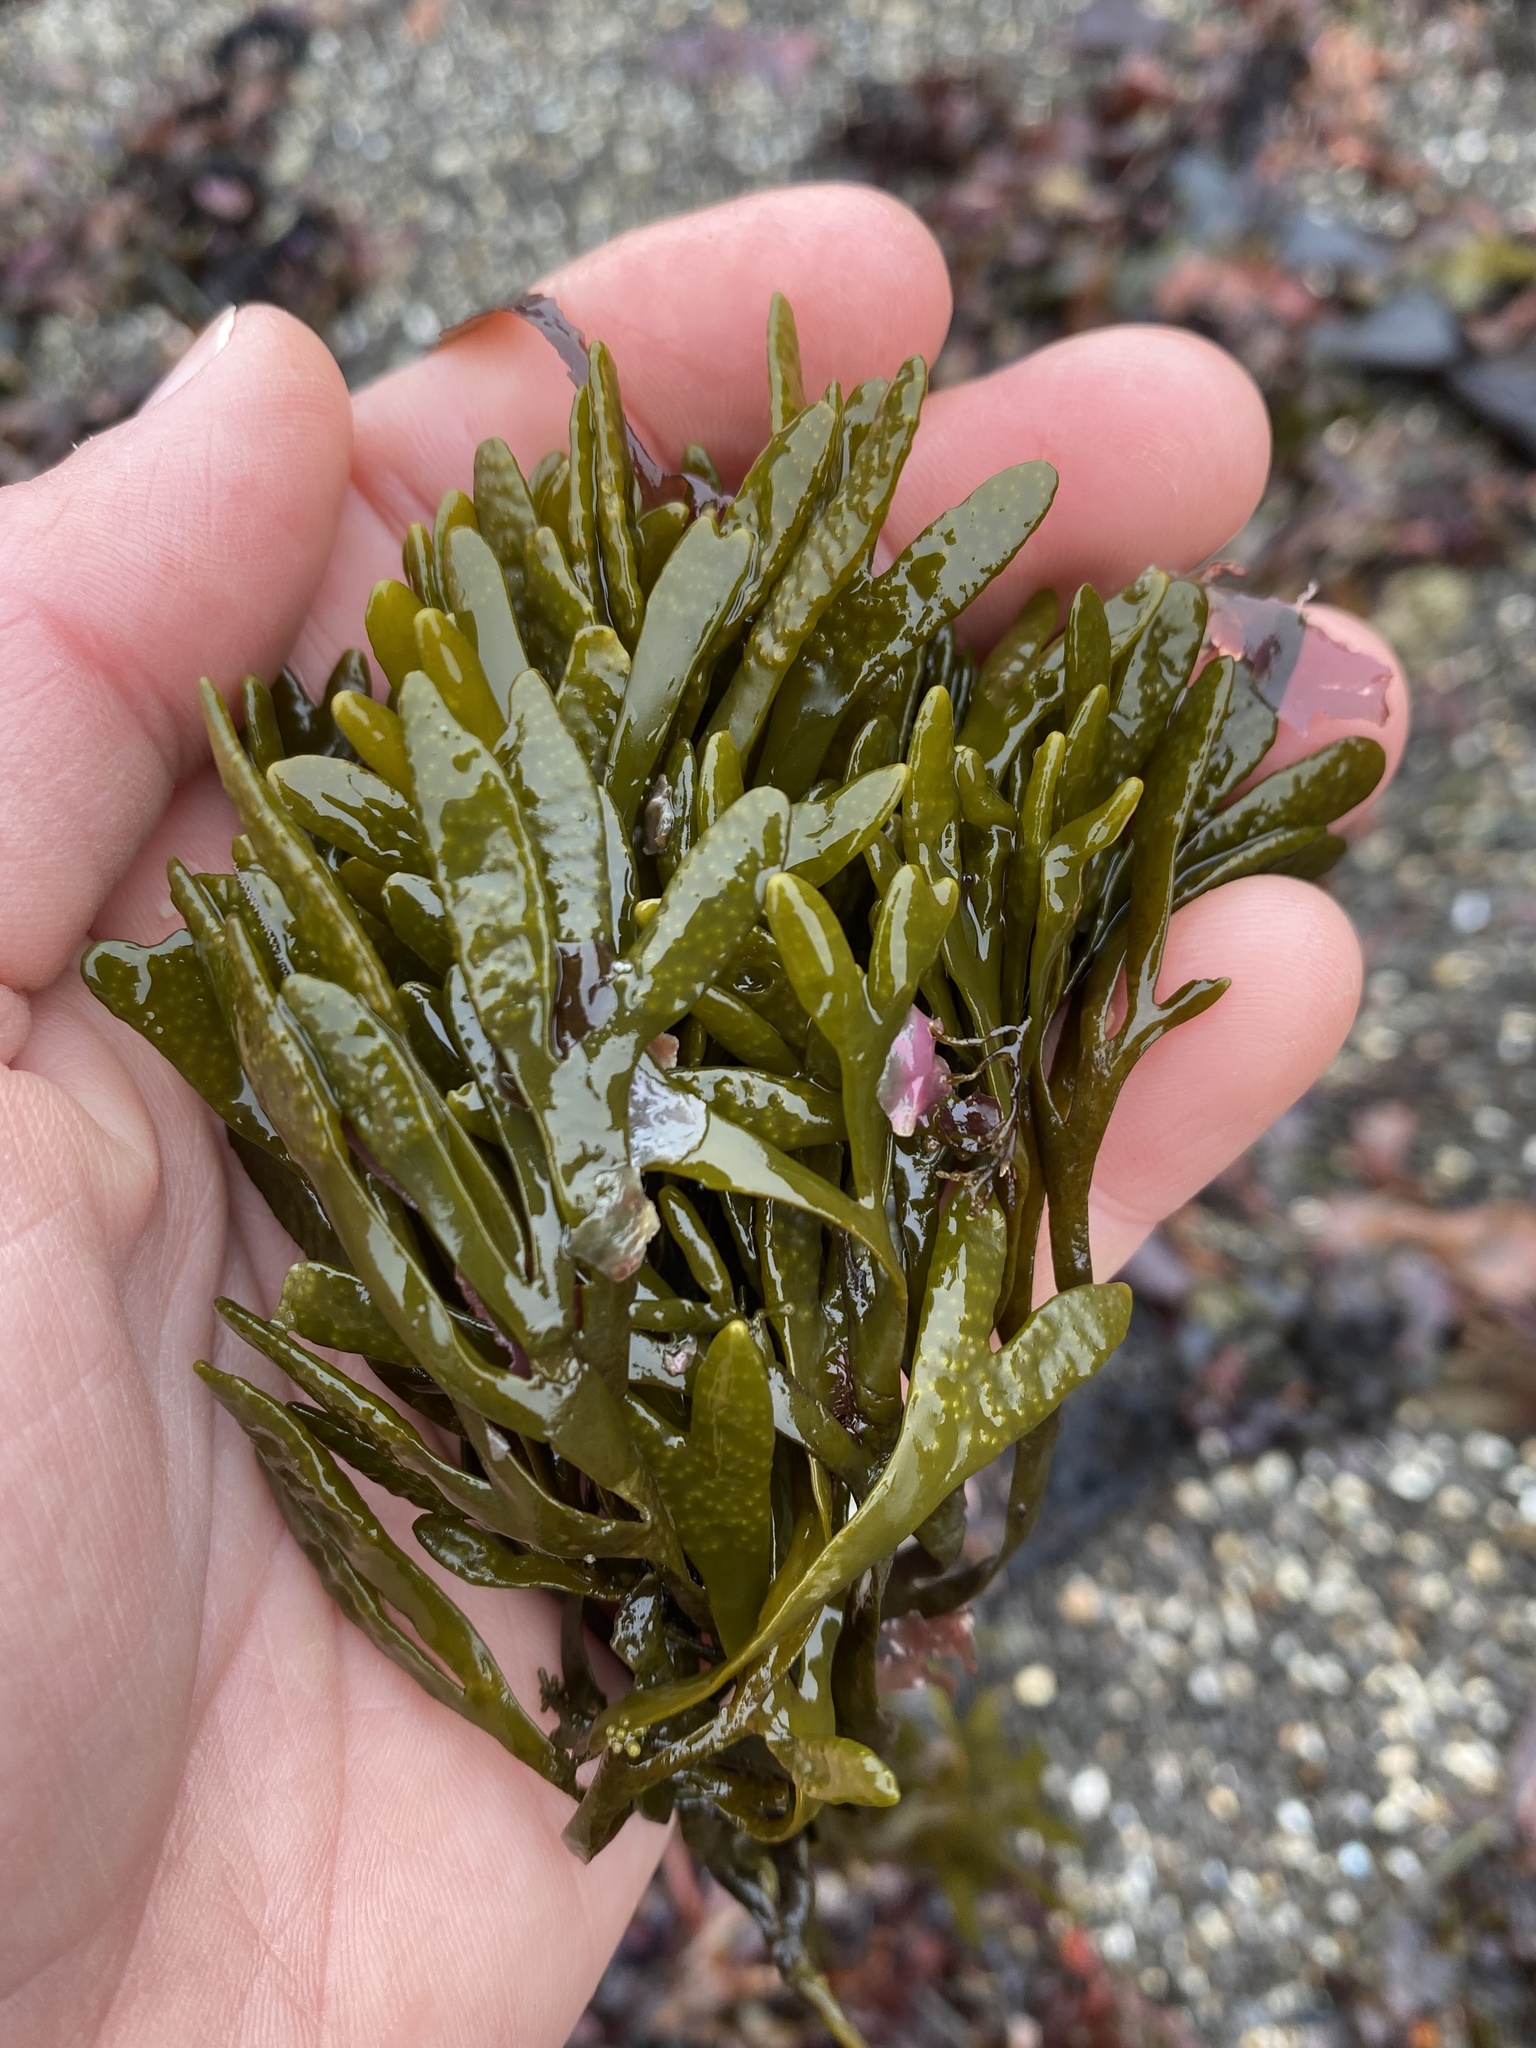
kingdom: Chromista
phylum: Ochrophyta
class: Phaeophyceae
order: Fucales
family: Fucaceae
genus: Pelvetiopsis
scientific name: Pelvetiopsis limitata
